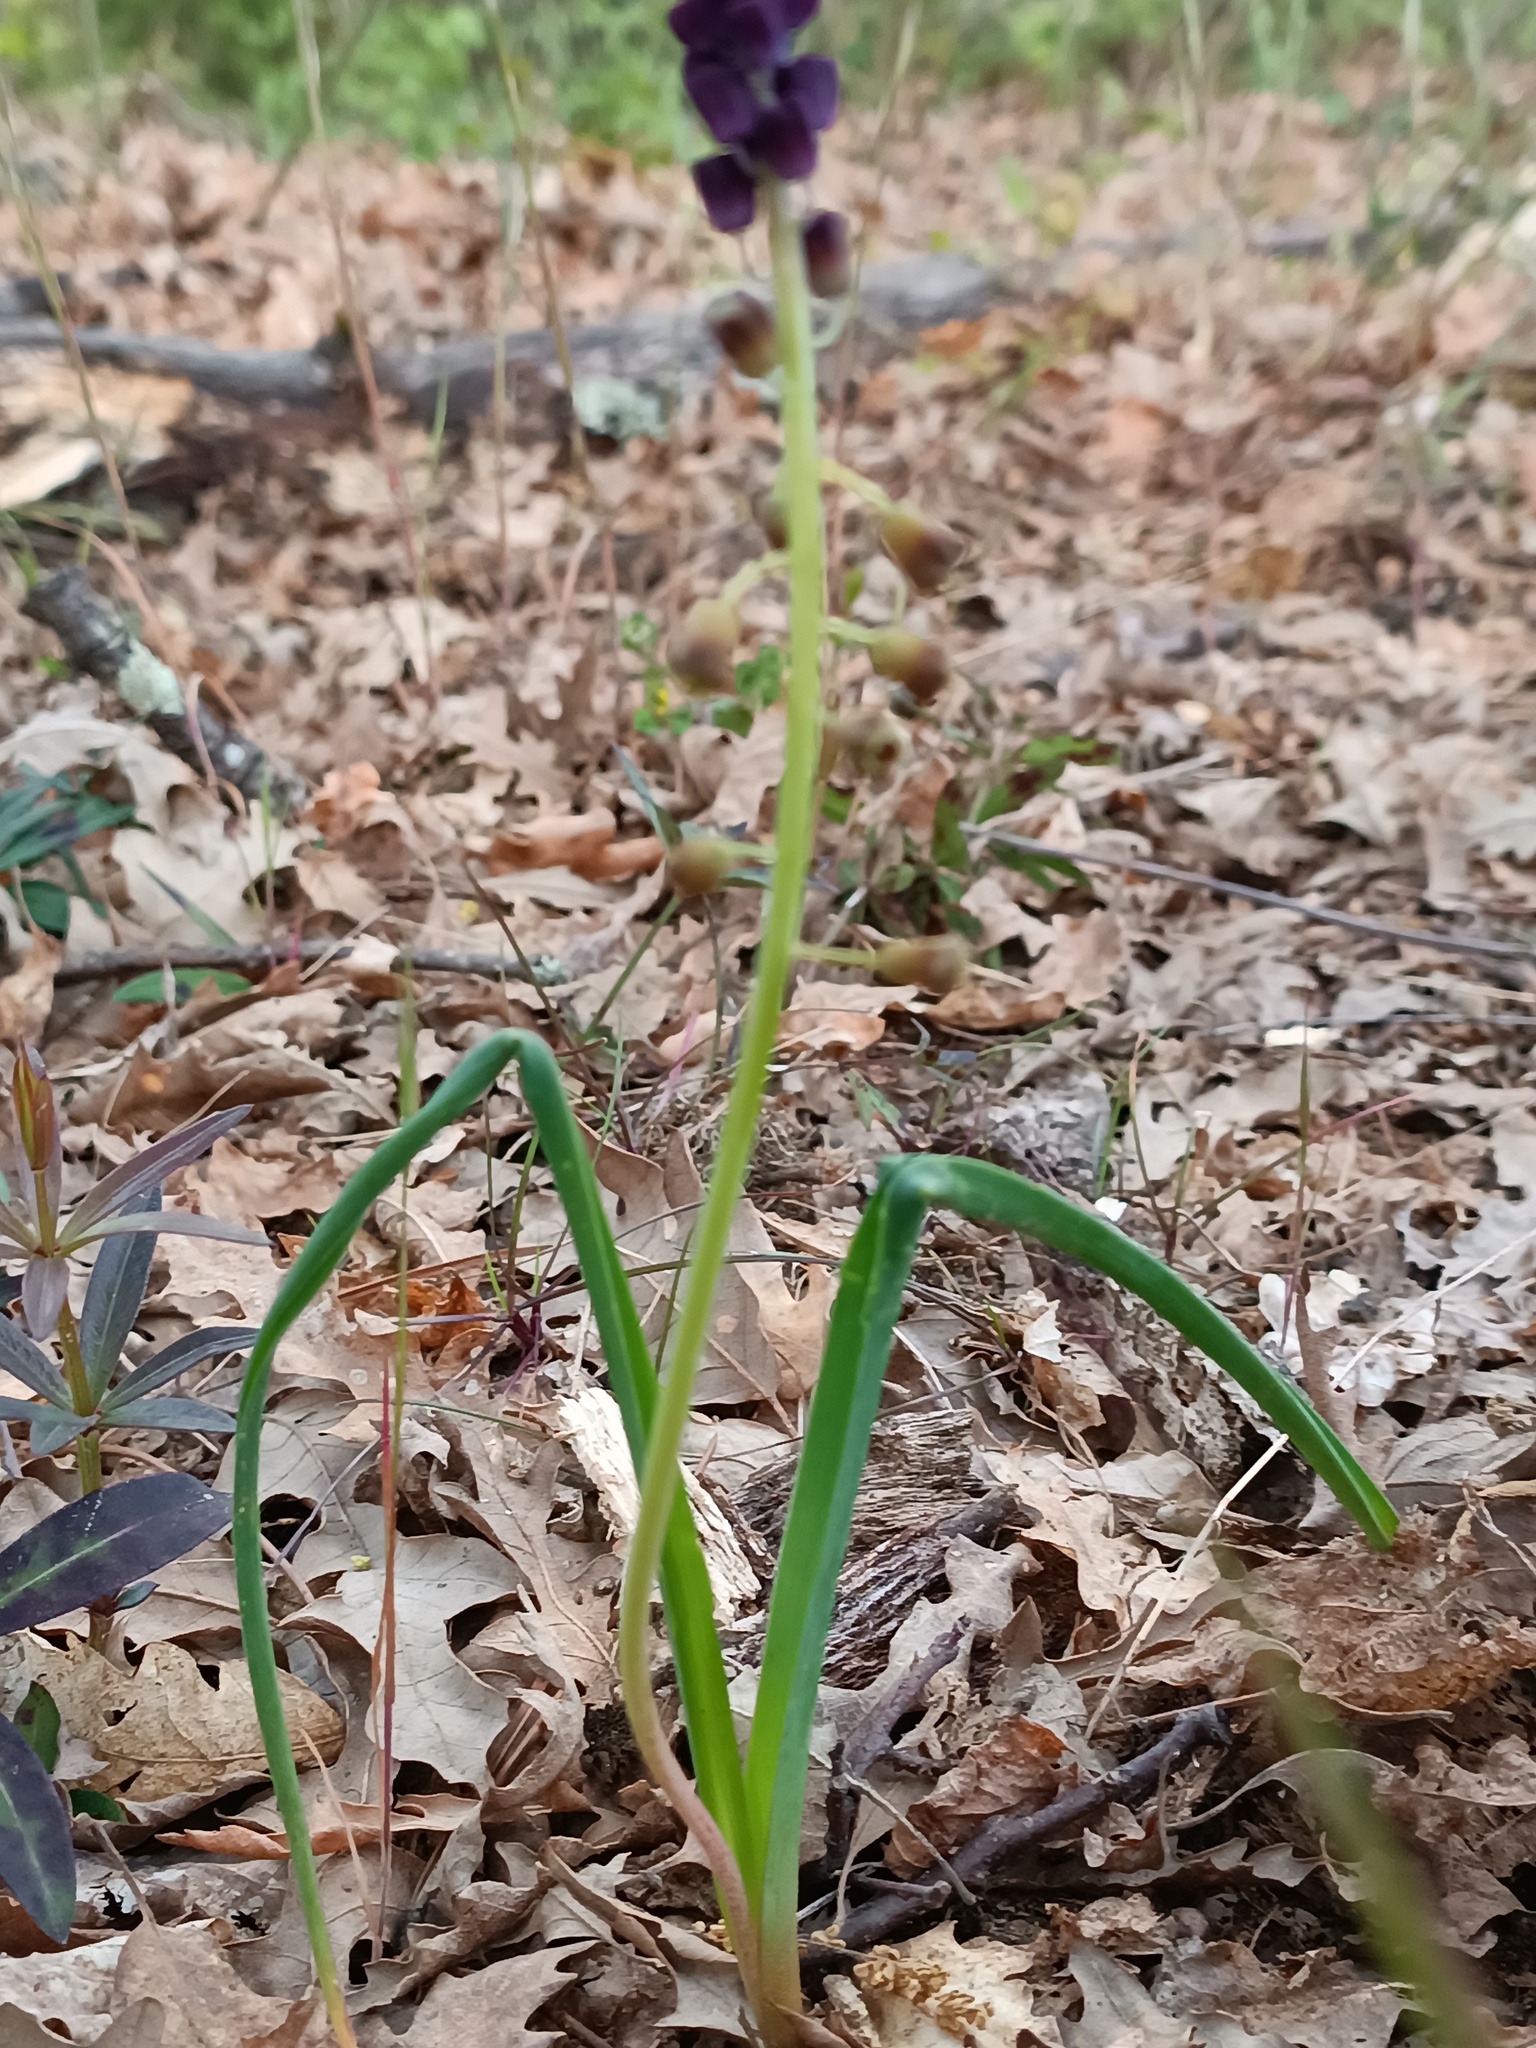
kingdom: Plantae
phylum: Tracheophyta
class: Liliopsida
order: Asparagales
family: Asparagaceae
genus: Muscari
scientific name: Muscari comosum
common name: Tassel hyacinth
